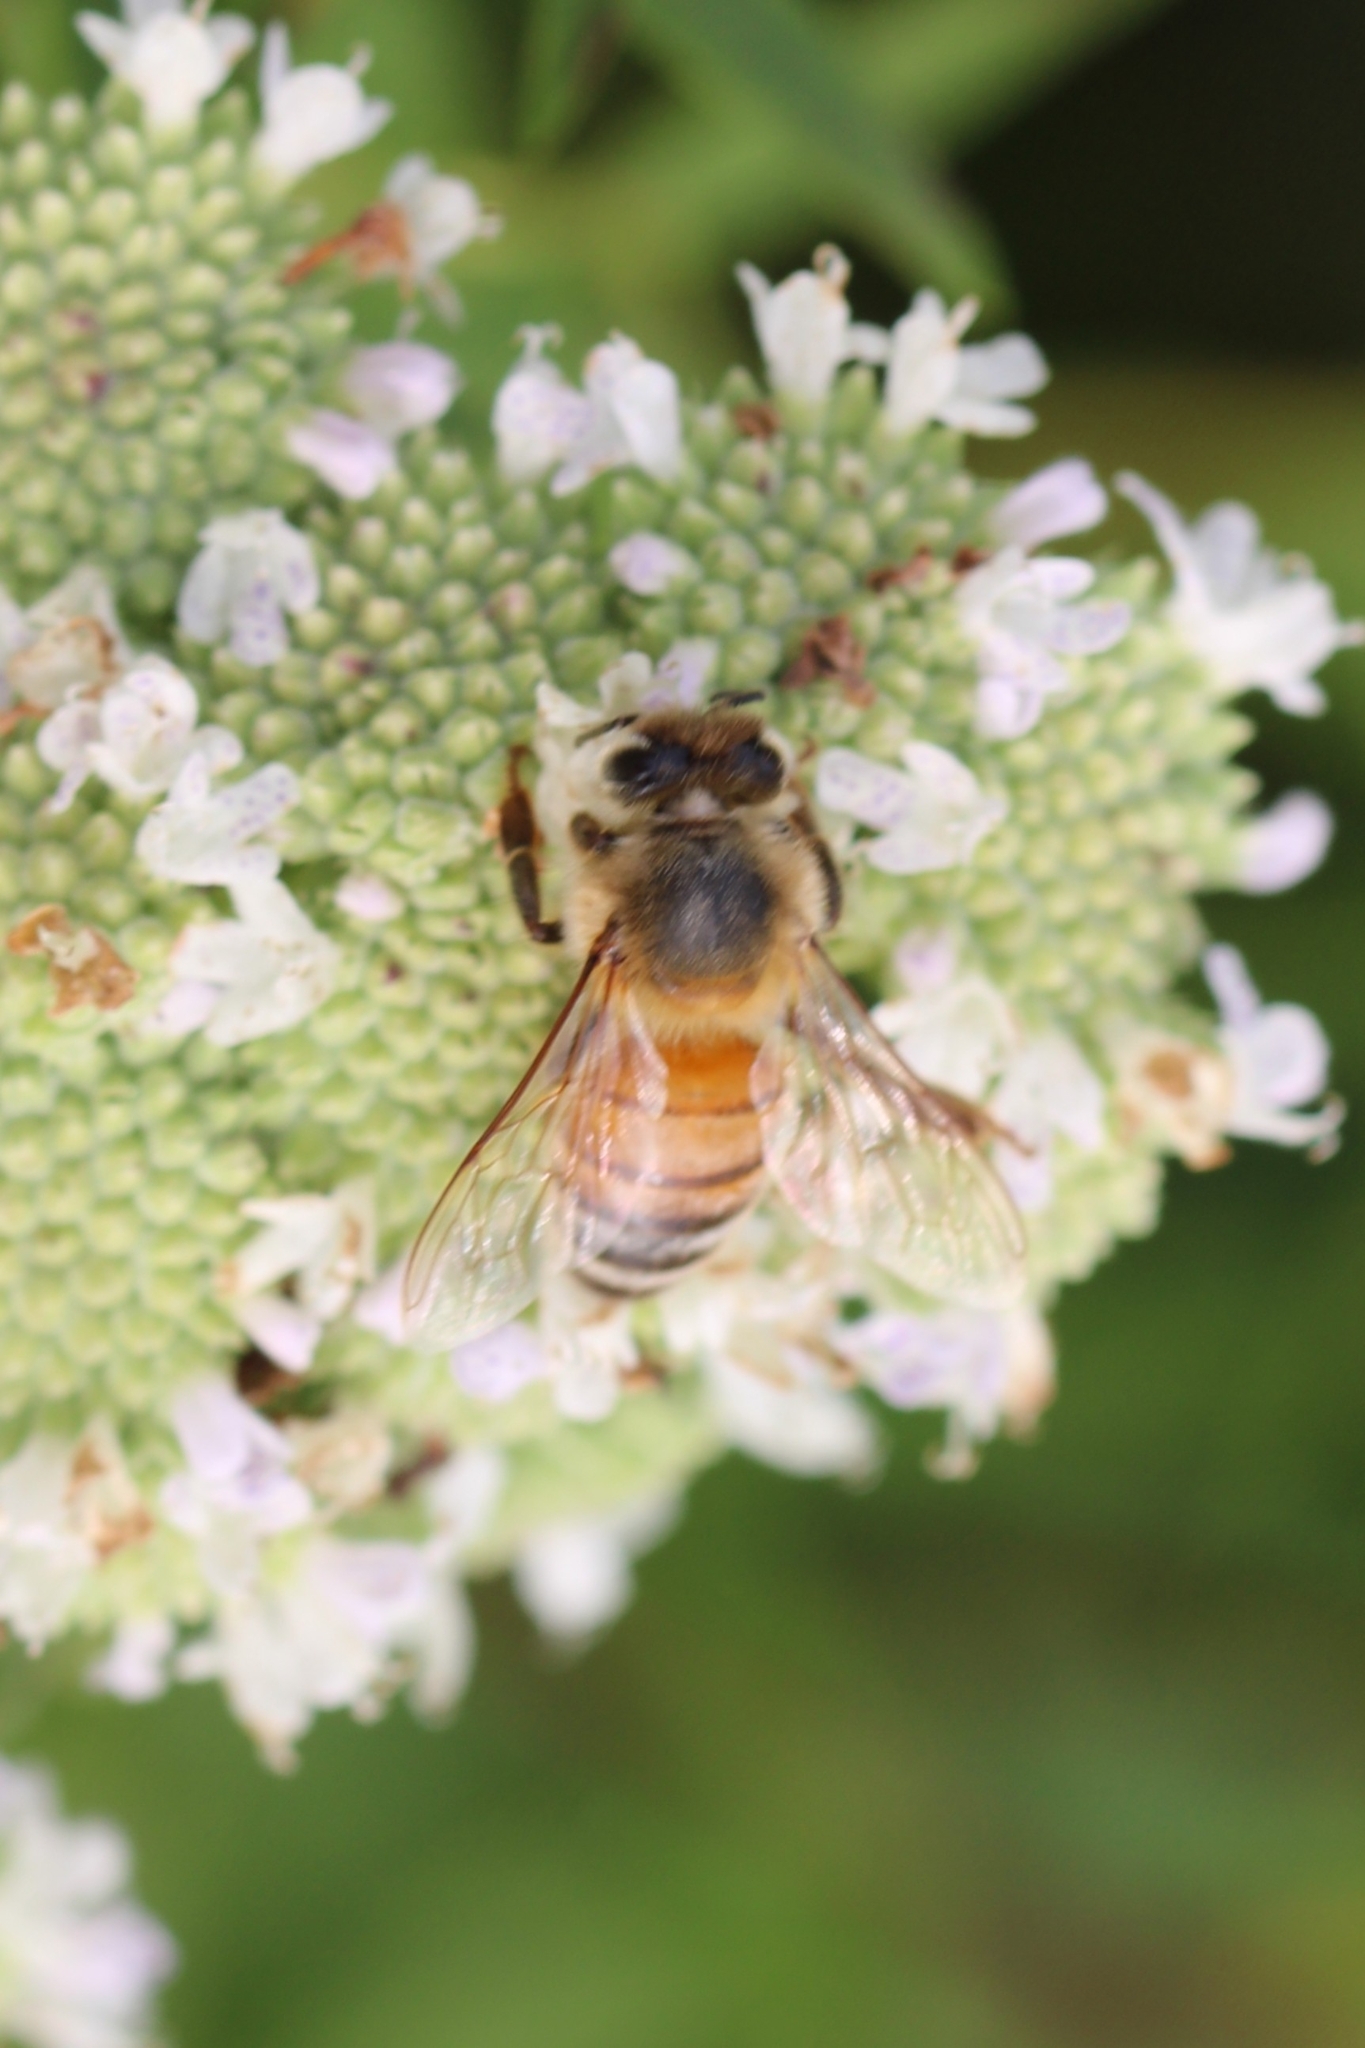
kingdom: Animalia
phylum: Arthropoda
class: Insecta
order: Hymenoptera
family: Apidae
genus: Apis
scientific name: Apis mellifera
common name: Honey bee
